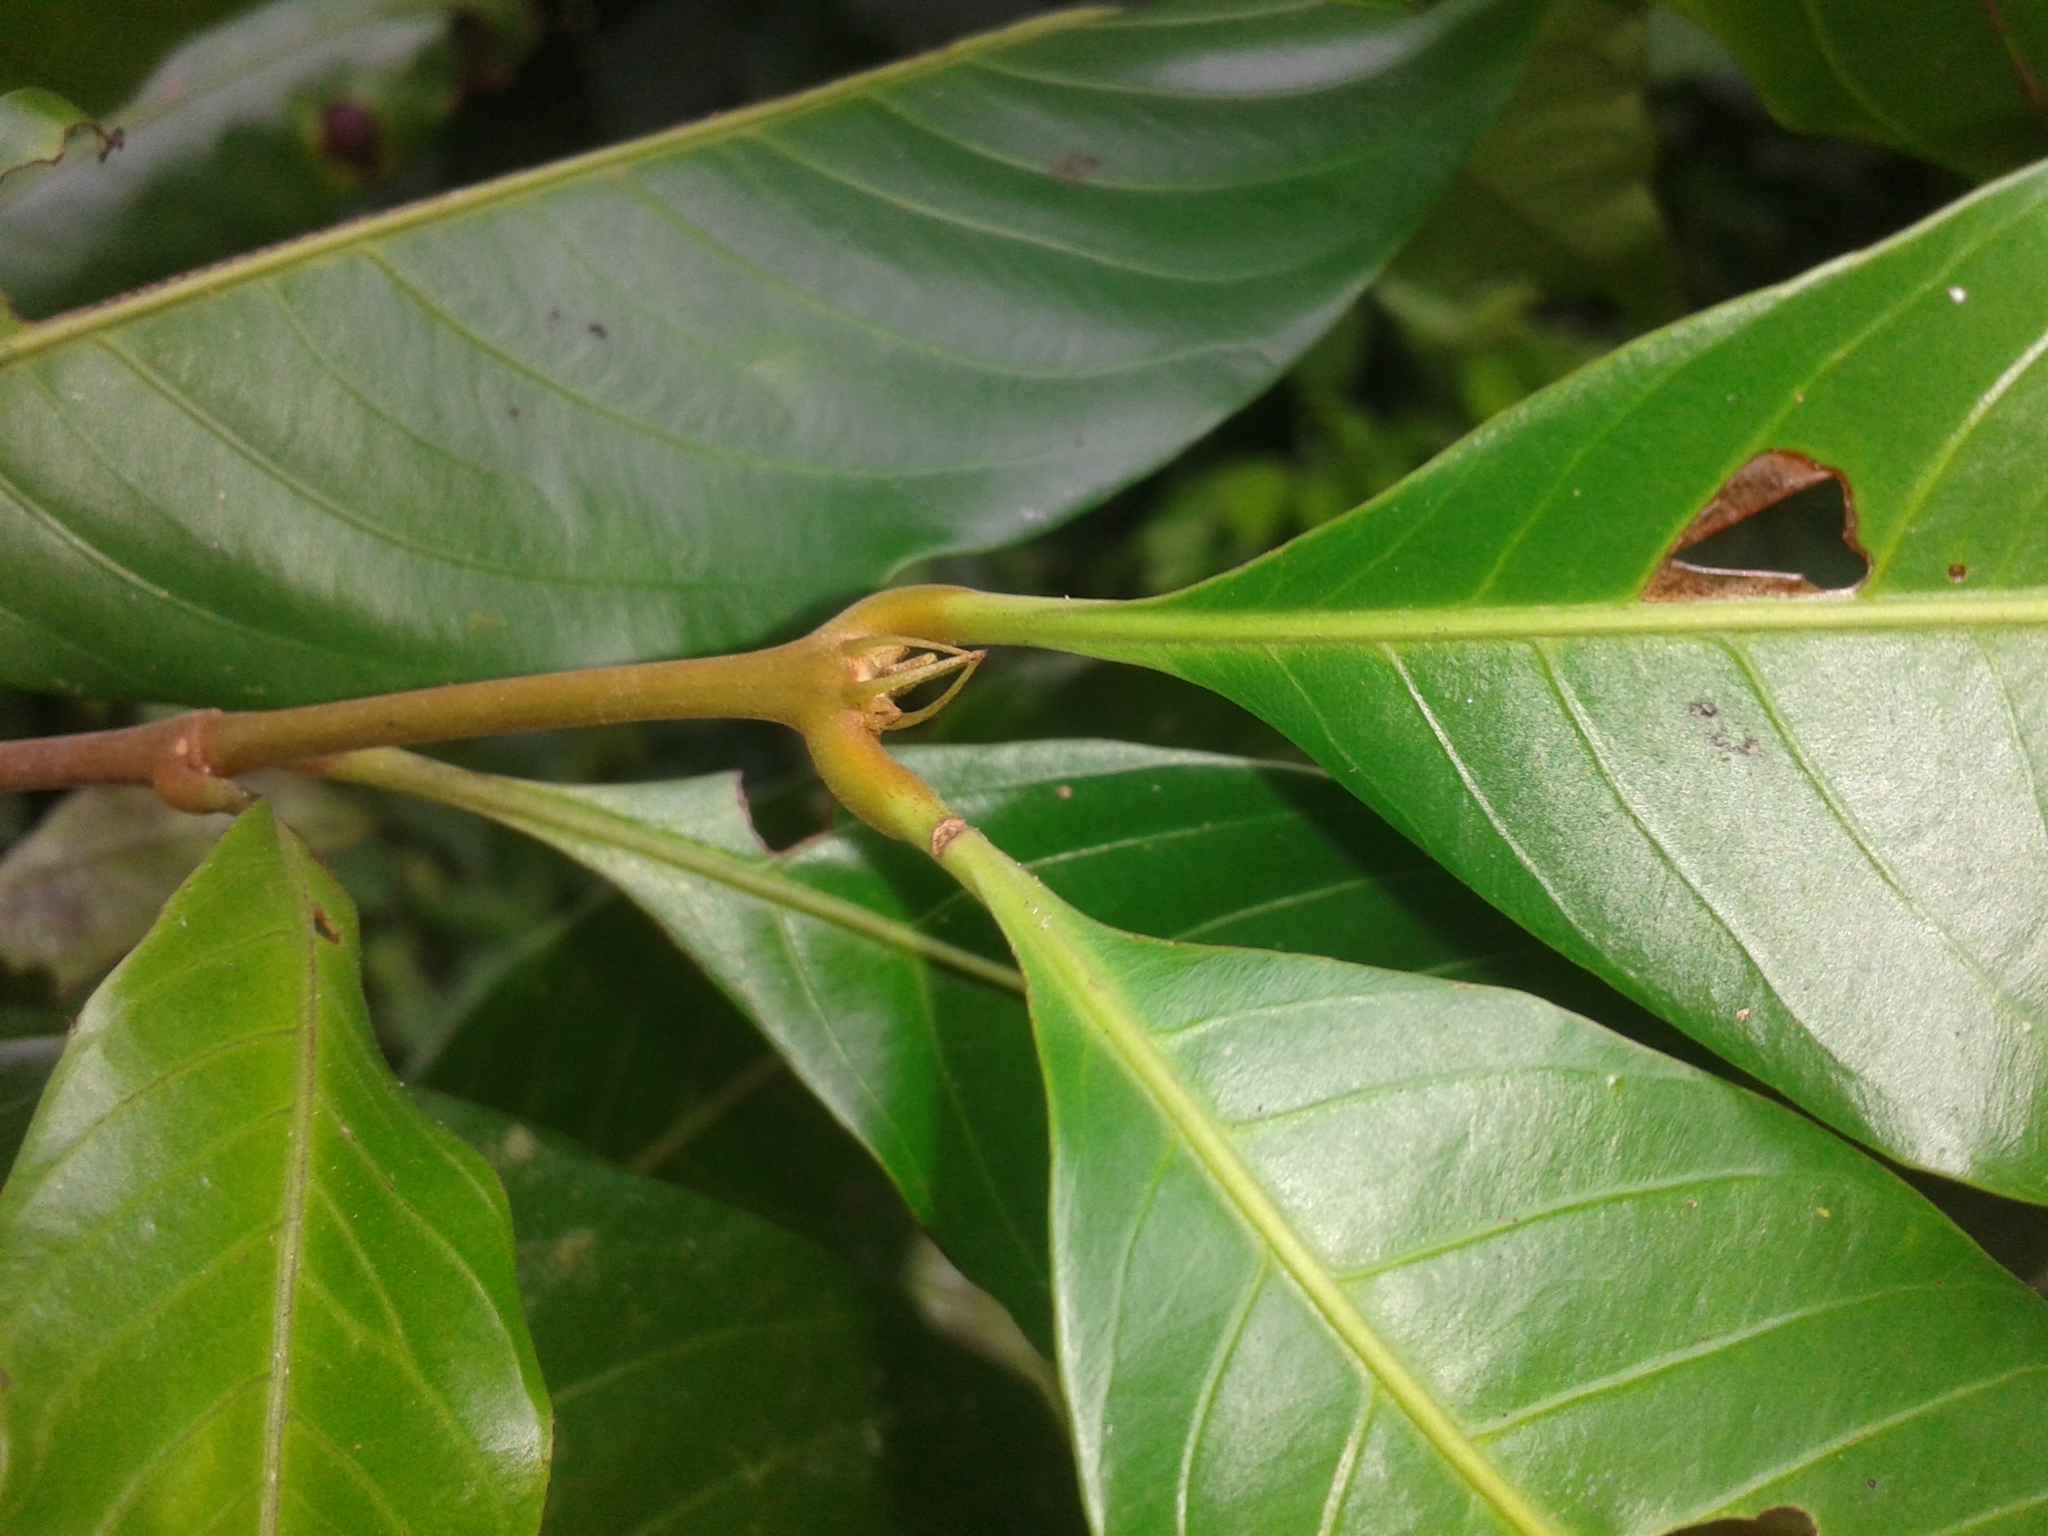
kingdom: Plantae
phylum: Tracheophyta
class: Magnoliopsida
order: Malpighiales
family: Quiinaceae
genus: Quiina
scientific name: Quiina cruegeriana
